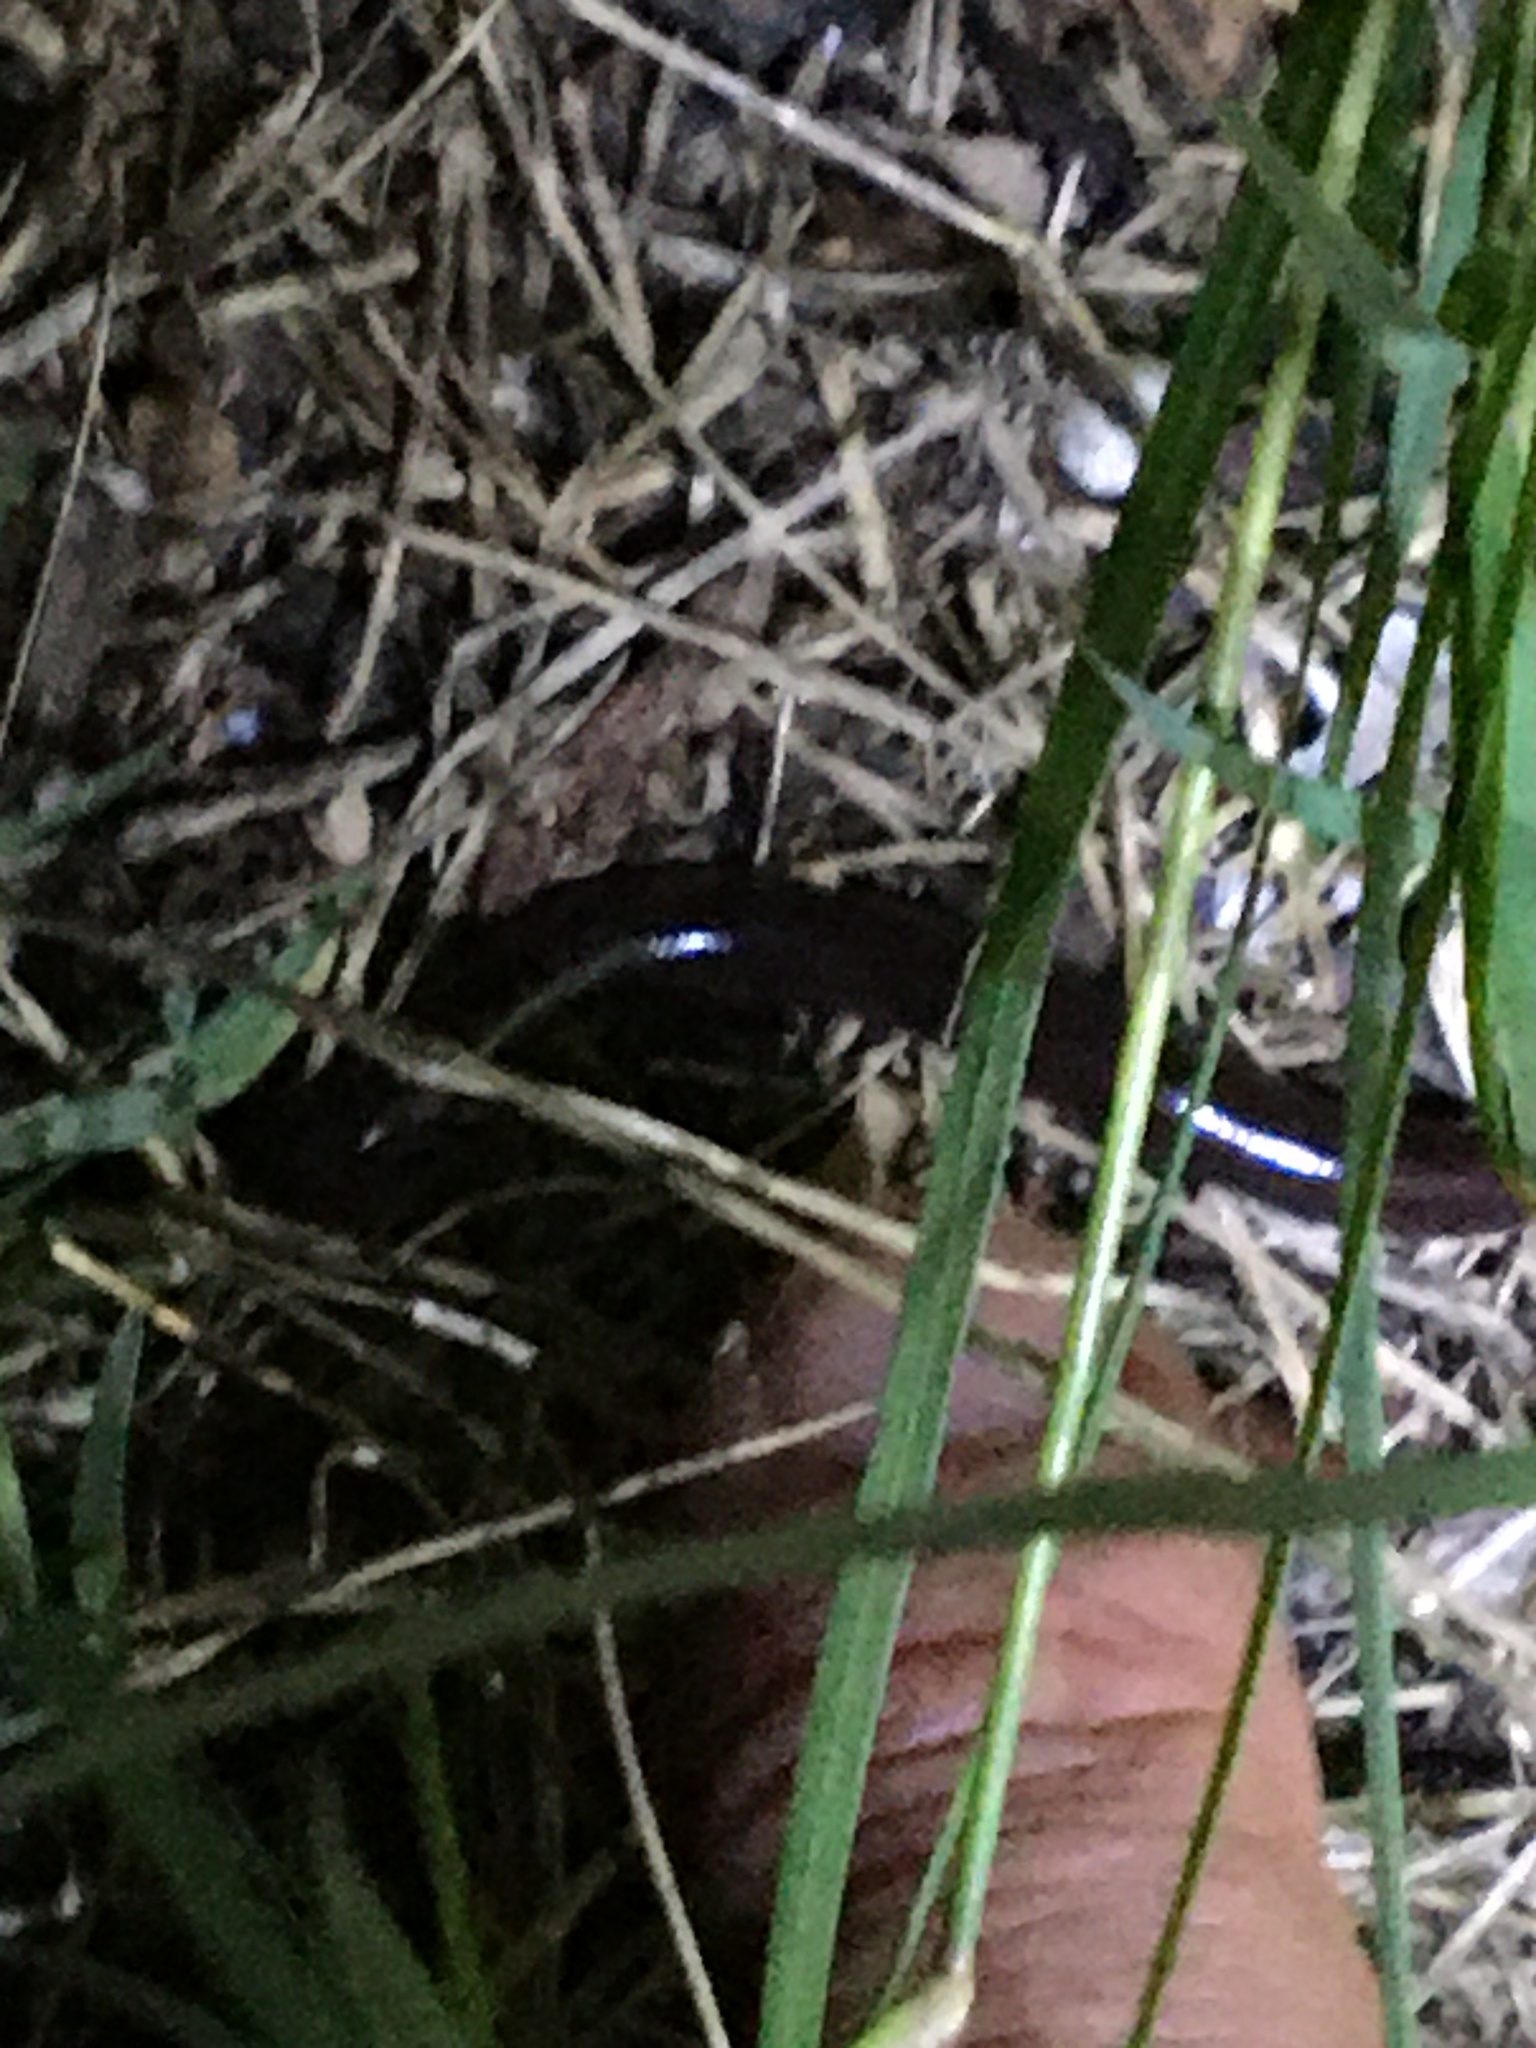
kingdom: Animalia
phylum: Chordata
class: Squamata
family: Typhlopidae
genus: Indotyphlops
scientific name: Indotyphlops braminus
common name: Brahminy blindsnake
